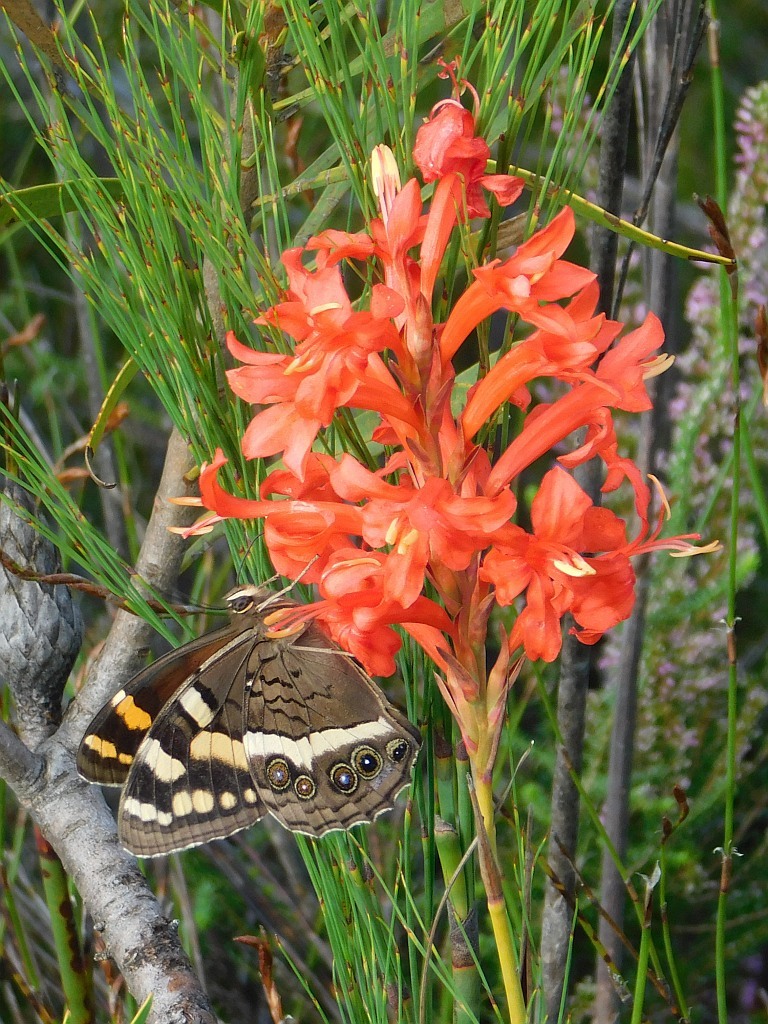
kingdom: Animalia
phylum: Arthropoda
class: Insecta
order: Lepidoptera
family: Nymphalidae
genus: Meneris
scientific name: Meneris Aeropetes tulbaghia
